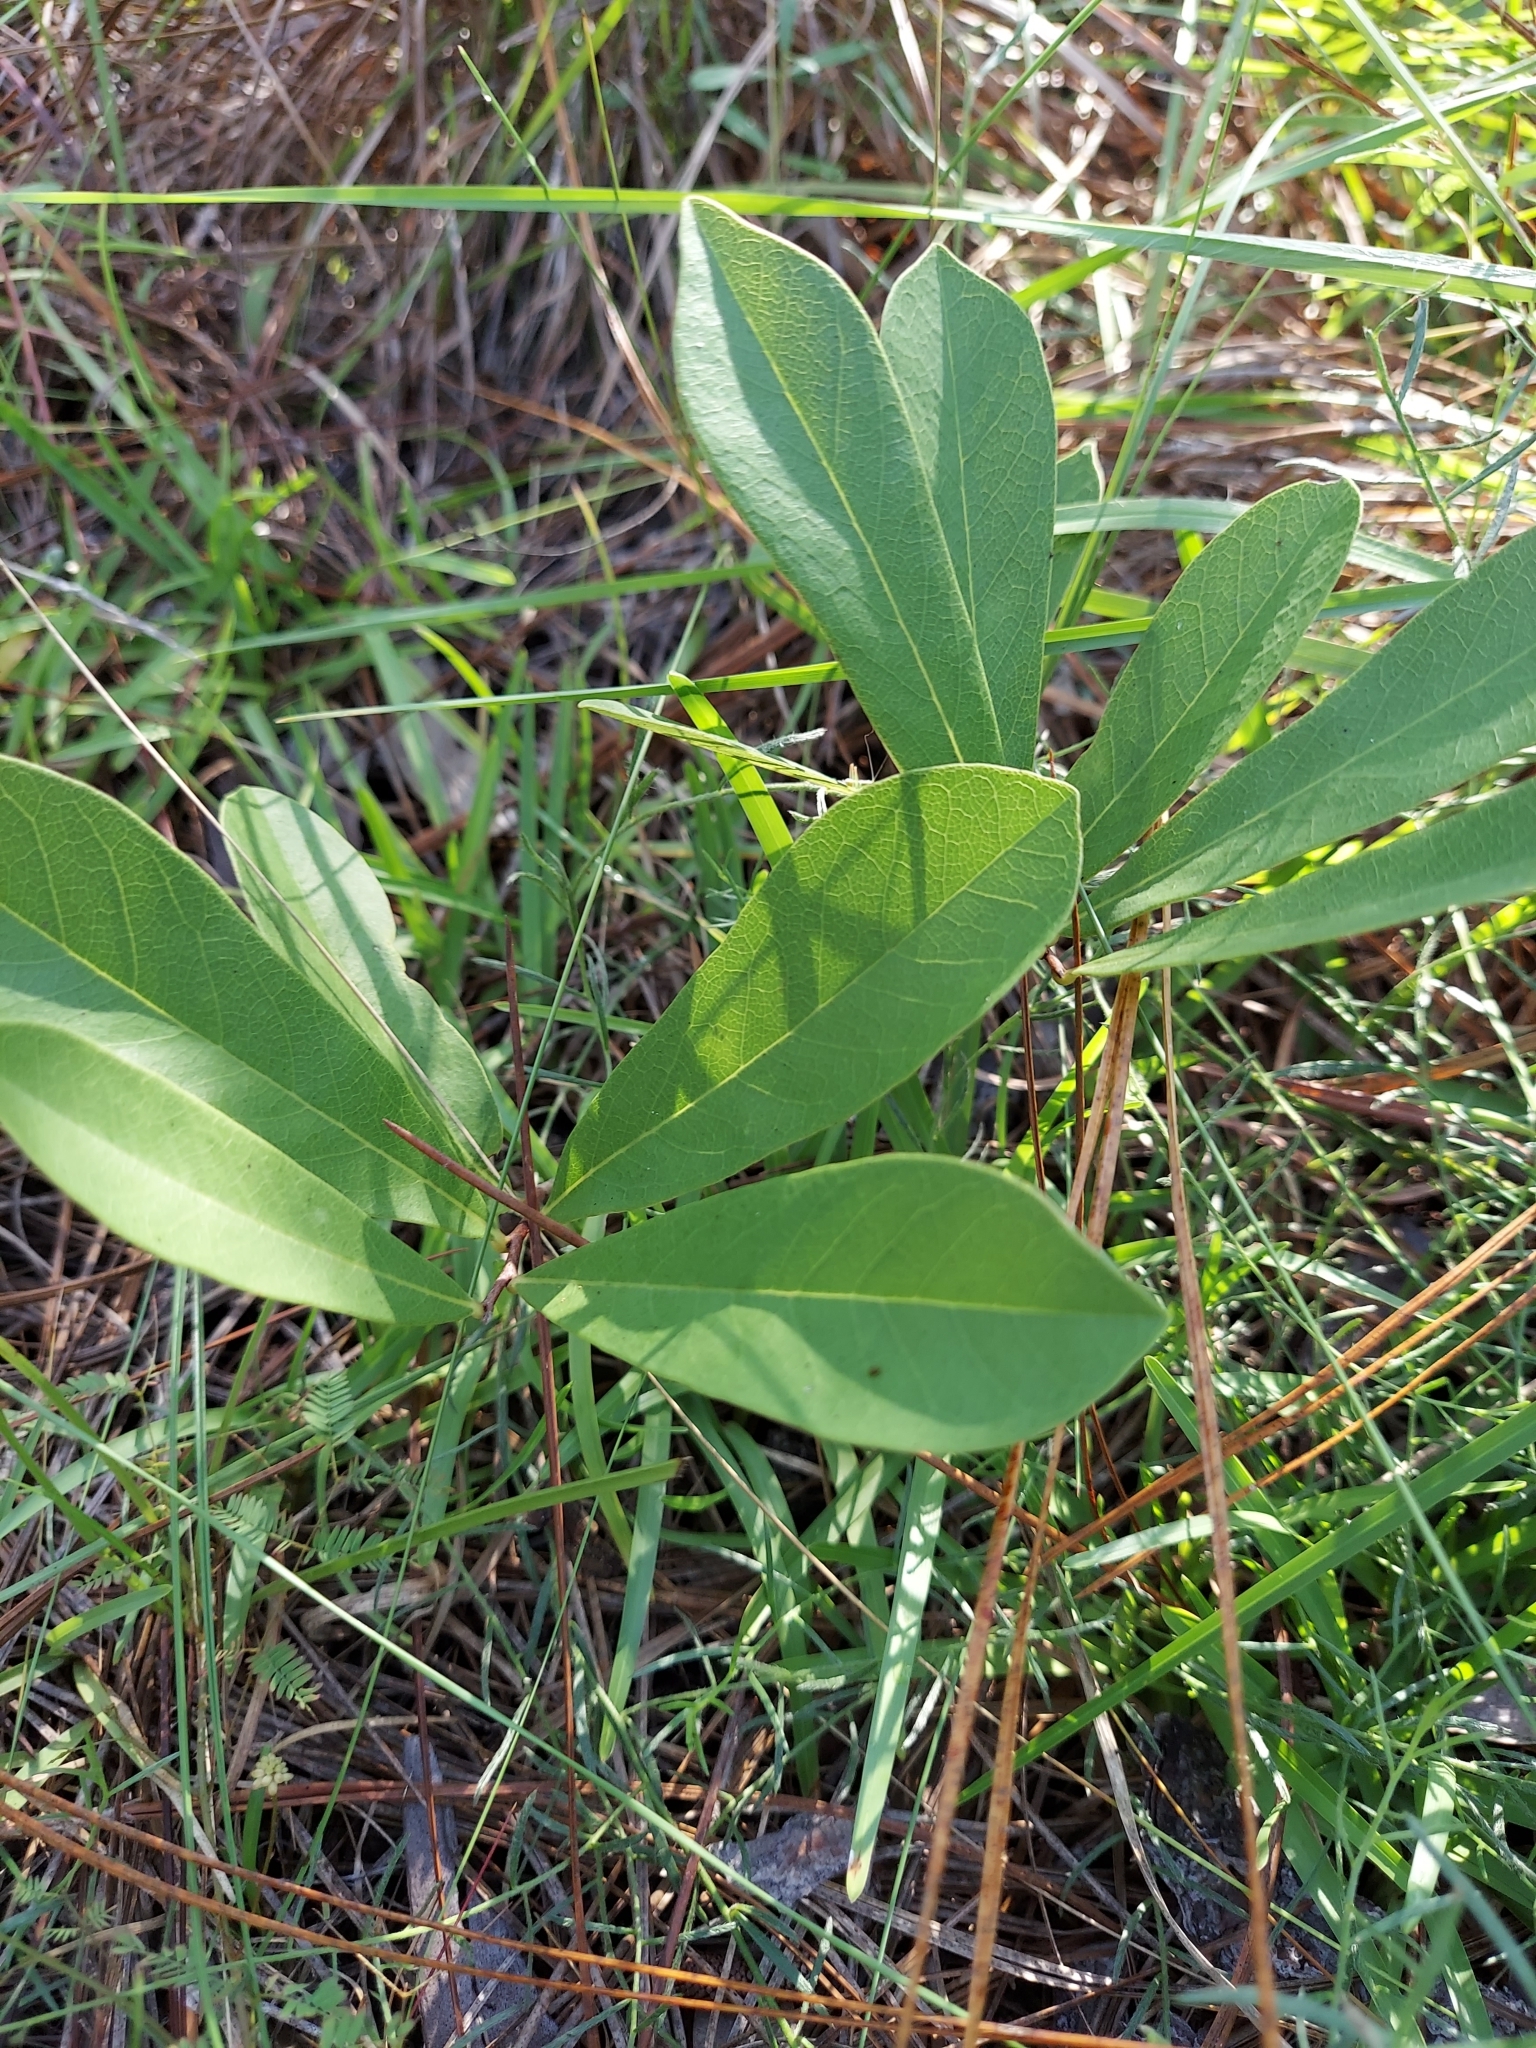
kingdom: Plantae
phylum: Tracheophyta
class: Magnoliopsida
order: Magnoliales
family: Annonaceae
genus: Asimina
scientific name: Asimina pygmaea
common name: Dwarf pawpaw
